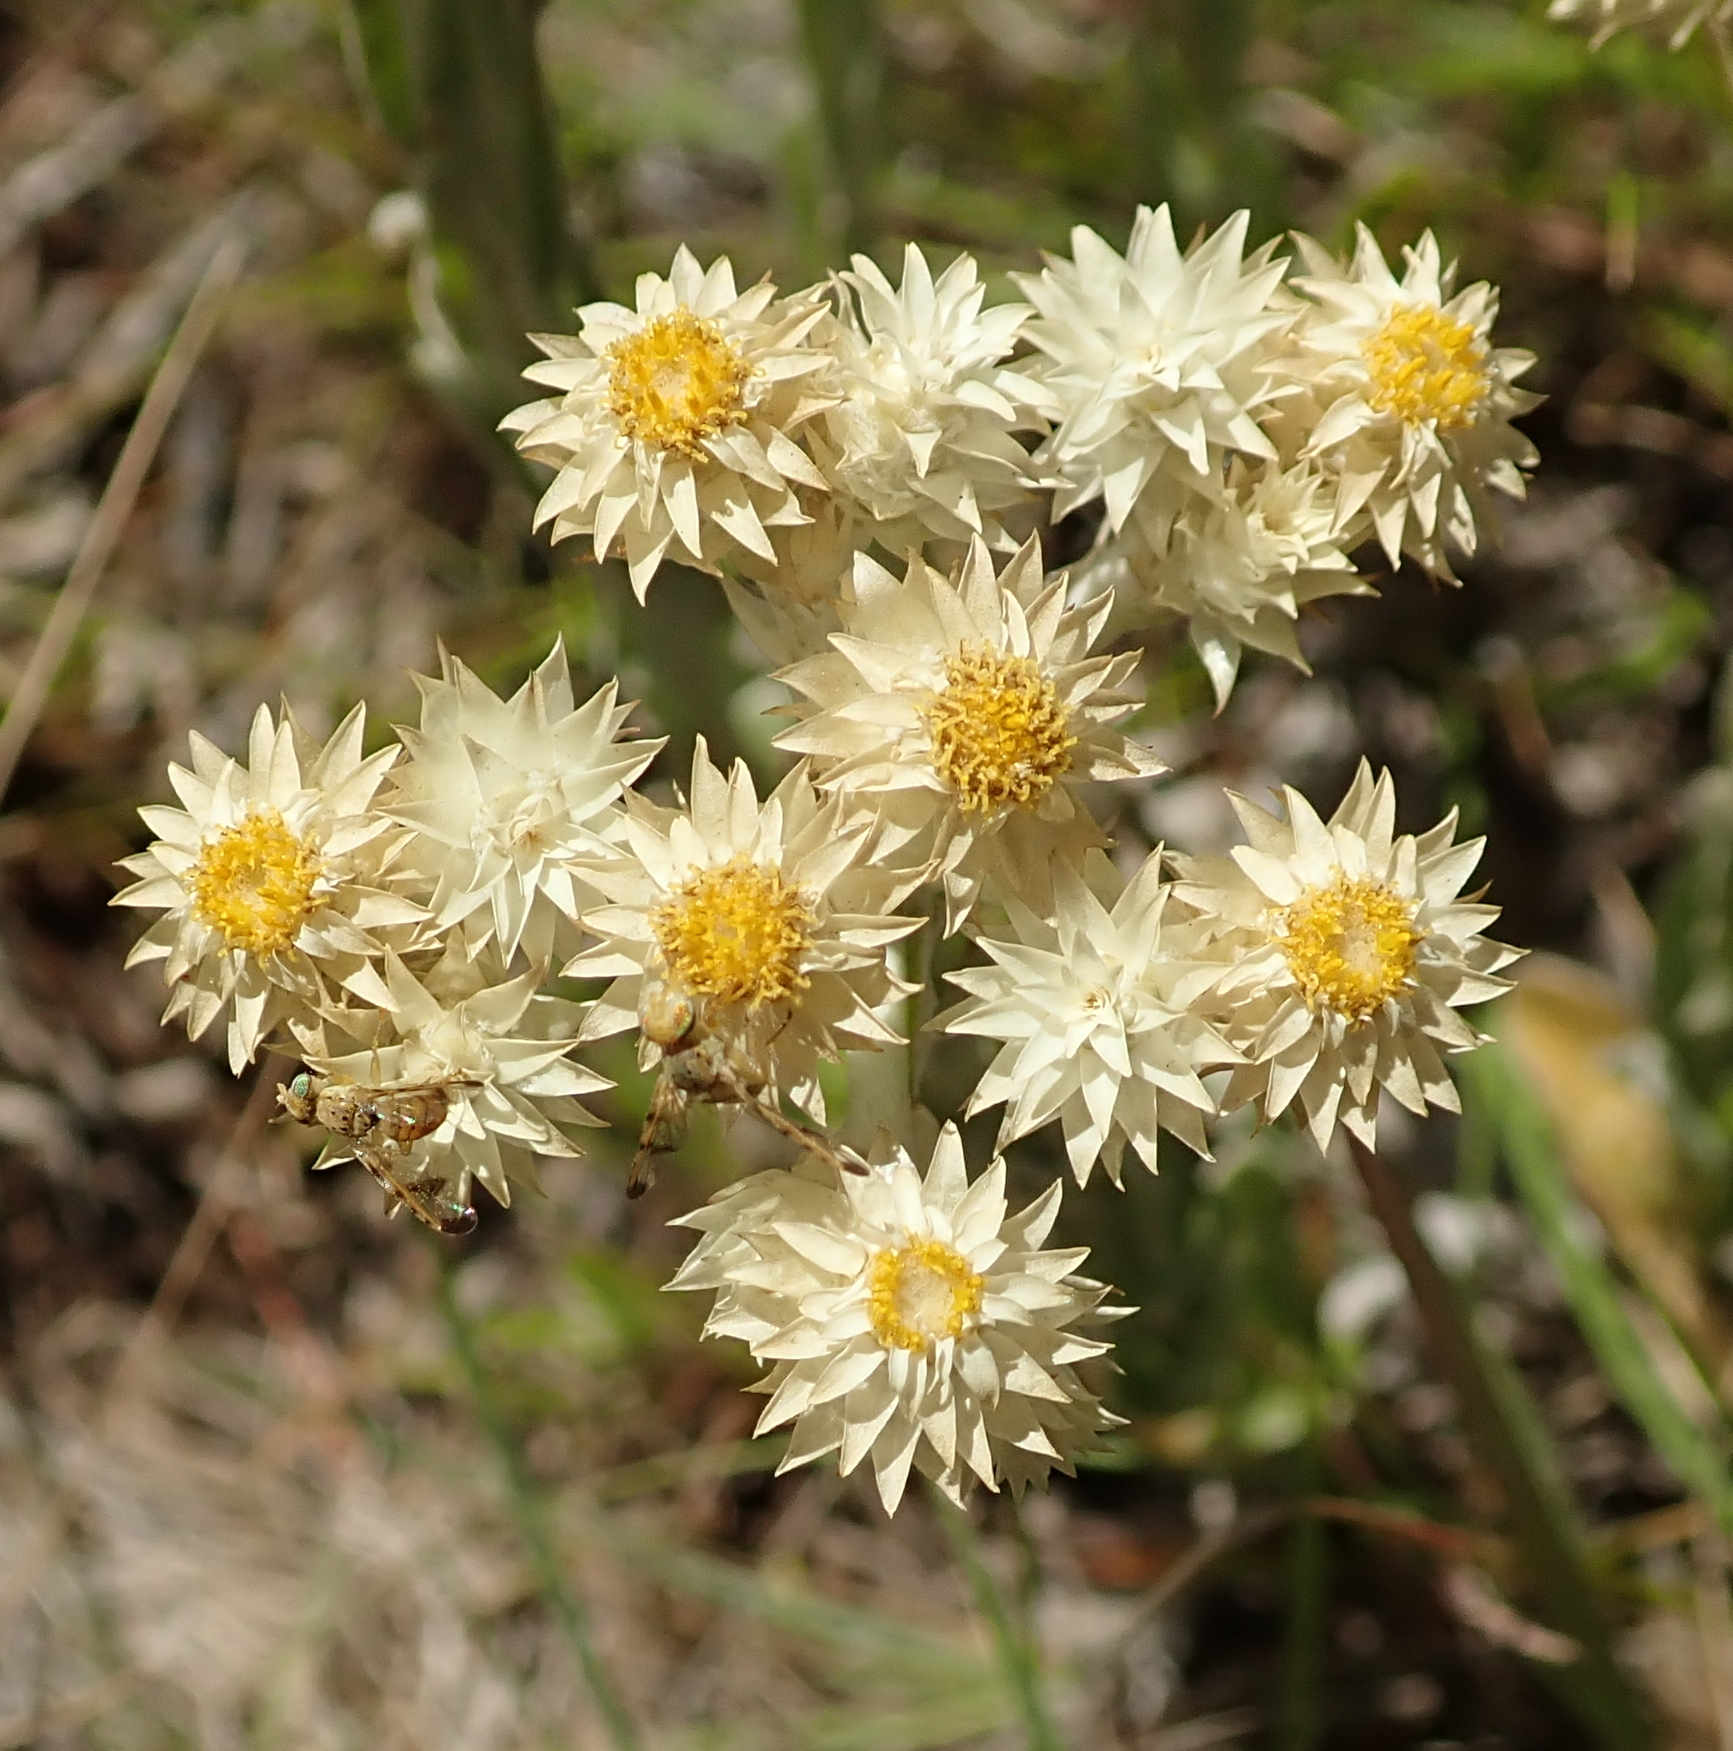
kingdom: Plantae
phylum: Tracheophyta
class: Magnoliopsida
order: Asterales
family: Asteraceae
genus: Helichrysum
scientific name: Helichrysum appendiculatum
